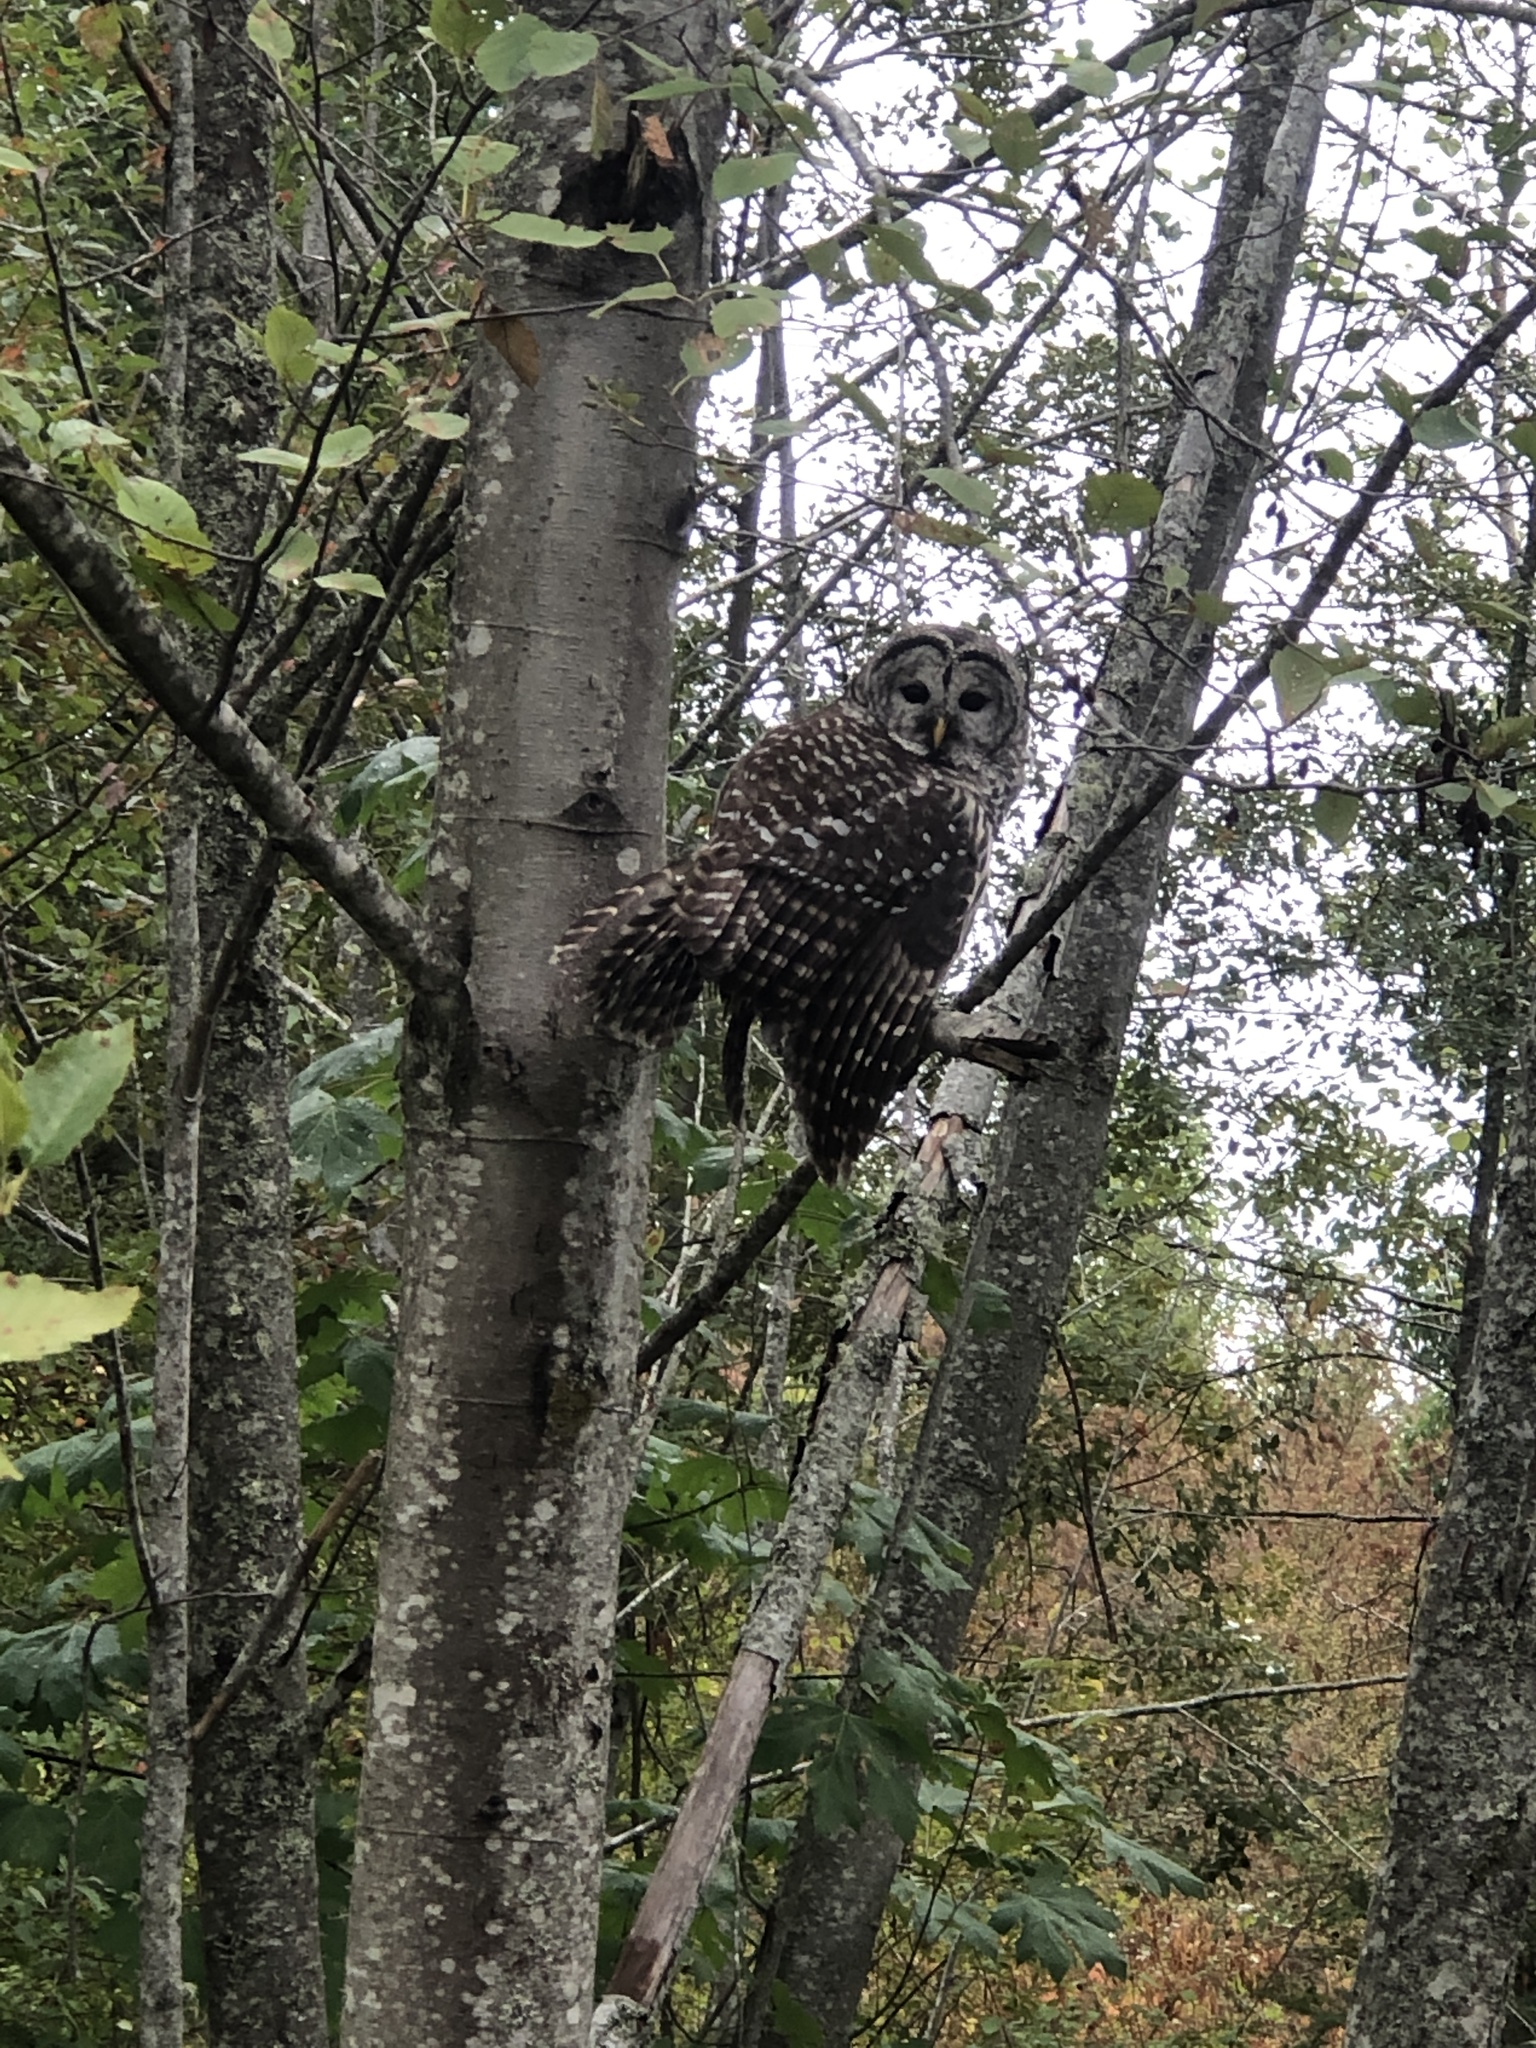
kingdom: Animalia
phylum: Chordata
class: Aves
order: Strigiformes
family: Strigidae
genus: Strix
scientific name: Strix varia
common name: Barred owl
